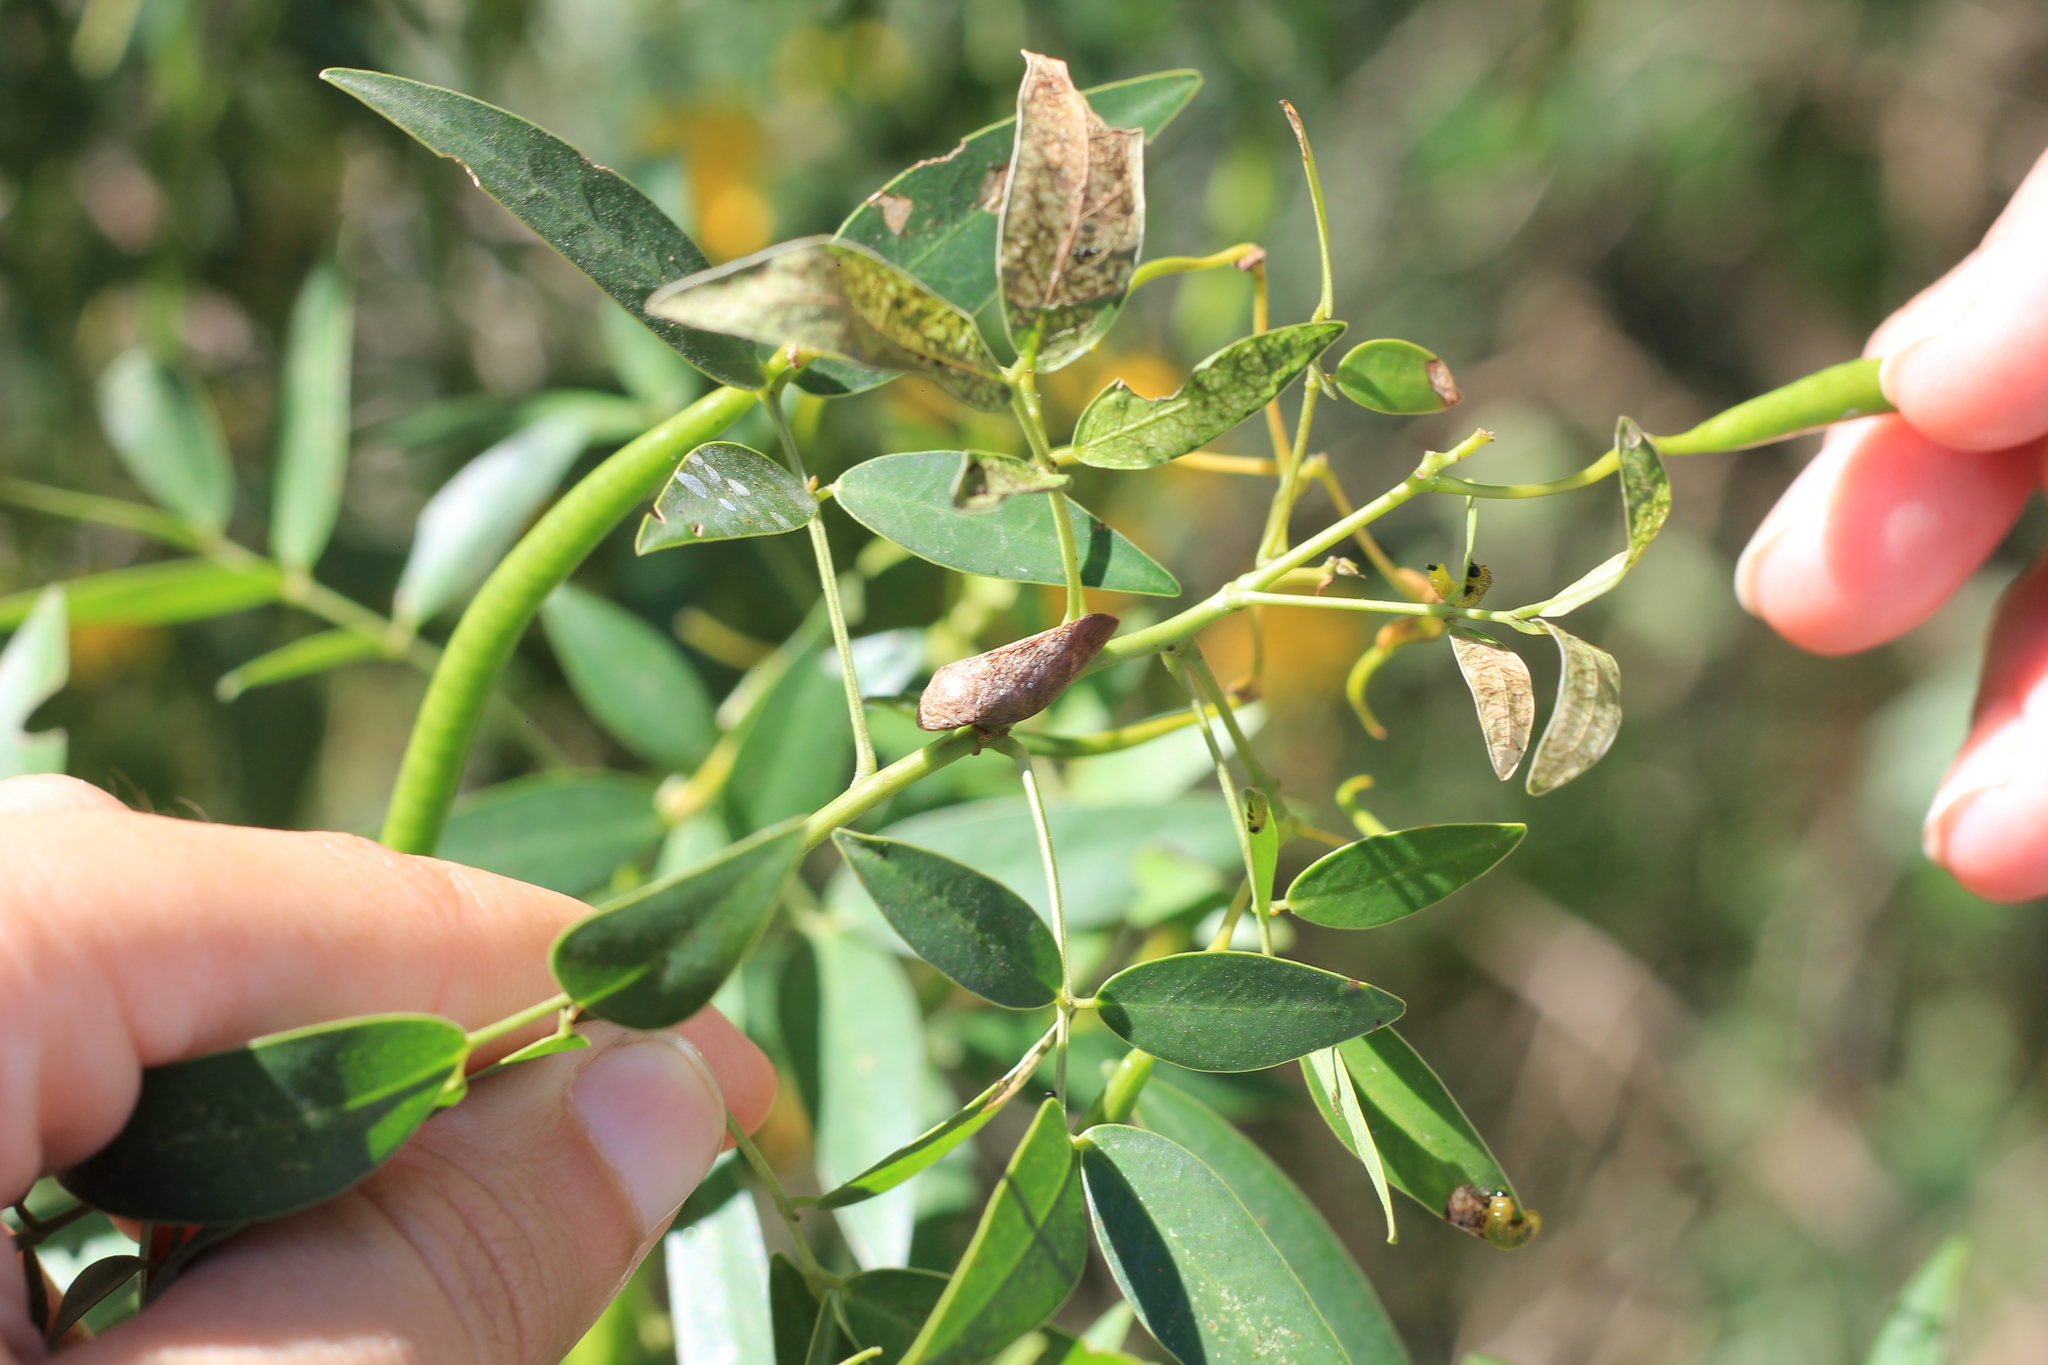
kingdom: Animalia
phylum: Arthropoda
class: Insecta
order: Hemiptera
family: Aphrophoridae
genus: Cephisus
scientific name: Cephisus siccifolius
